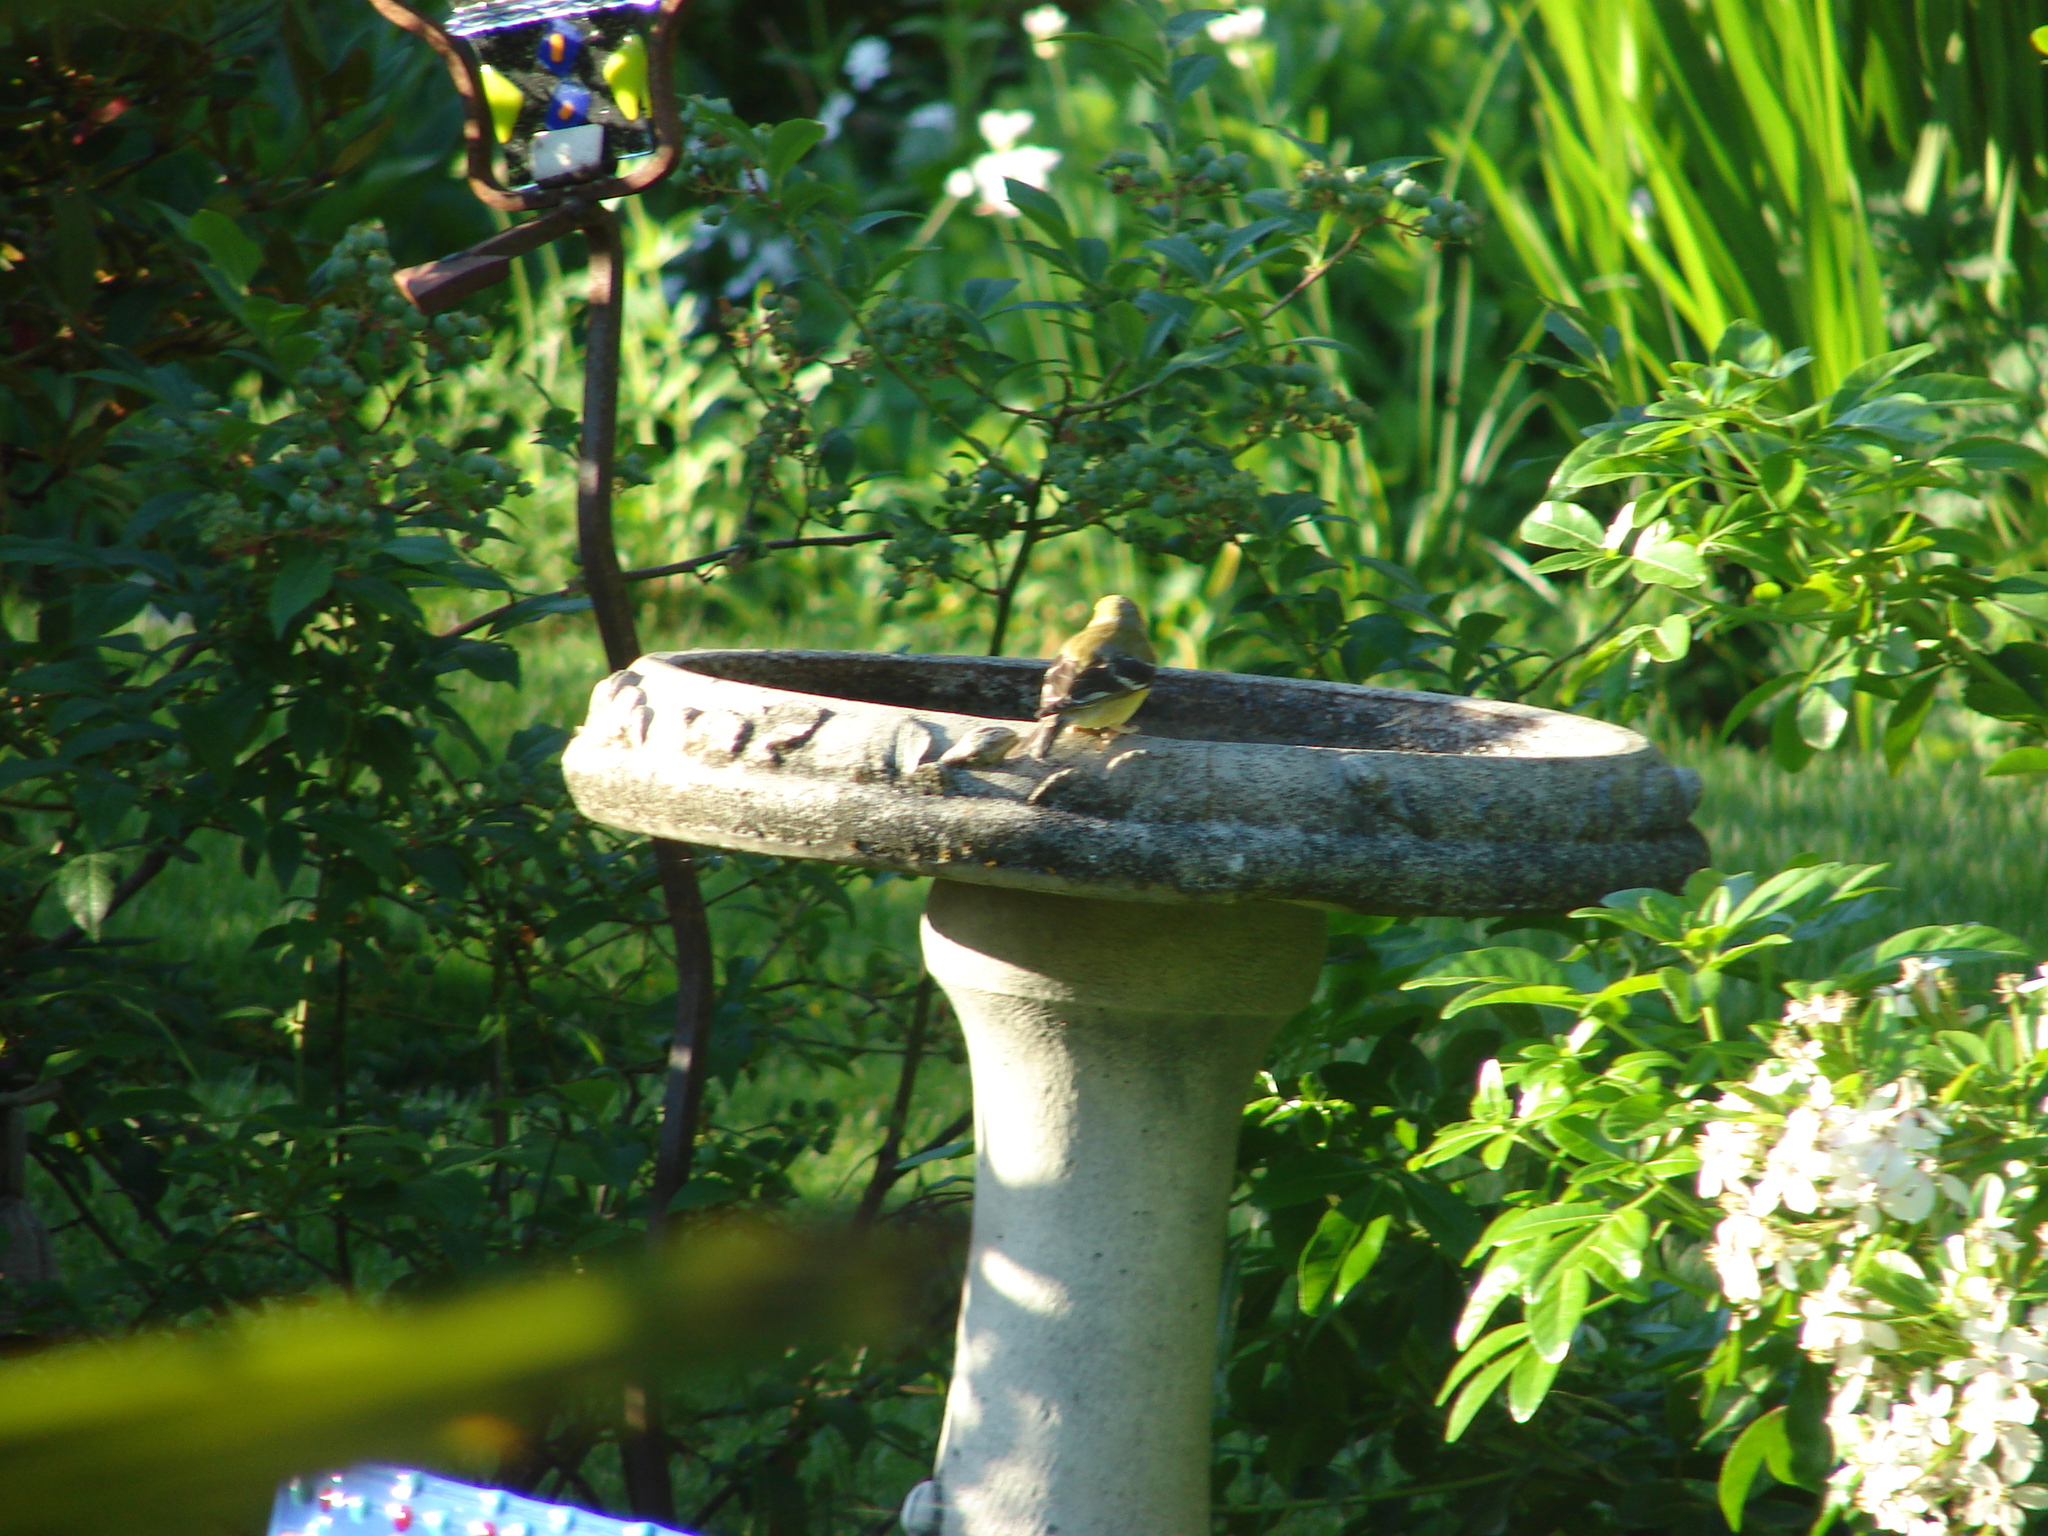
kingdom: Animalia
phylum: Chordata
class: Aves
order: Passeriformes
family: Fringillidae
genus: Spinus
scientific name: Spinus tristis
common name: American goldfinch
